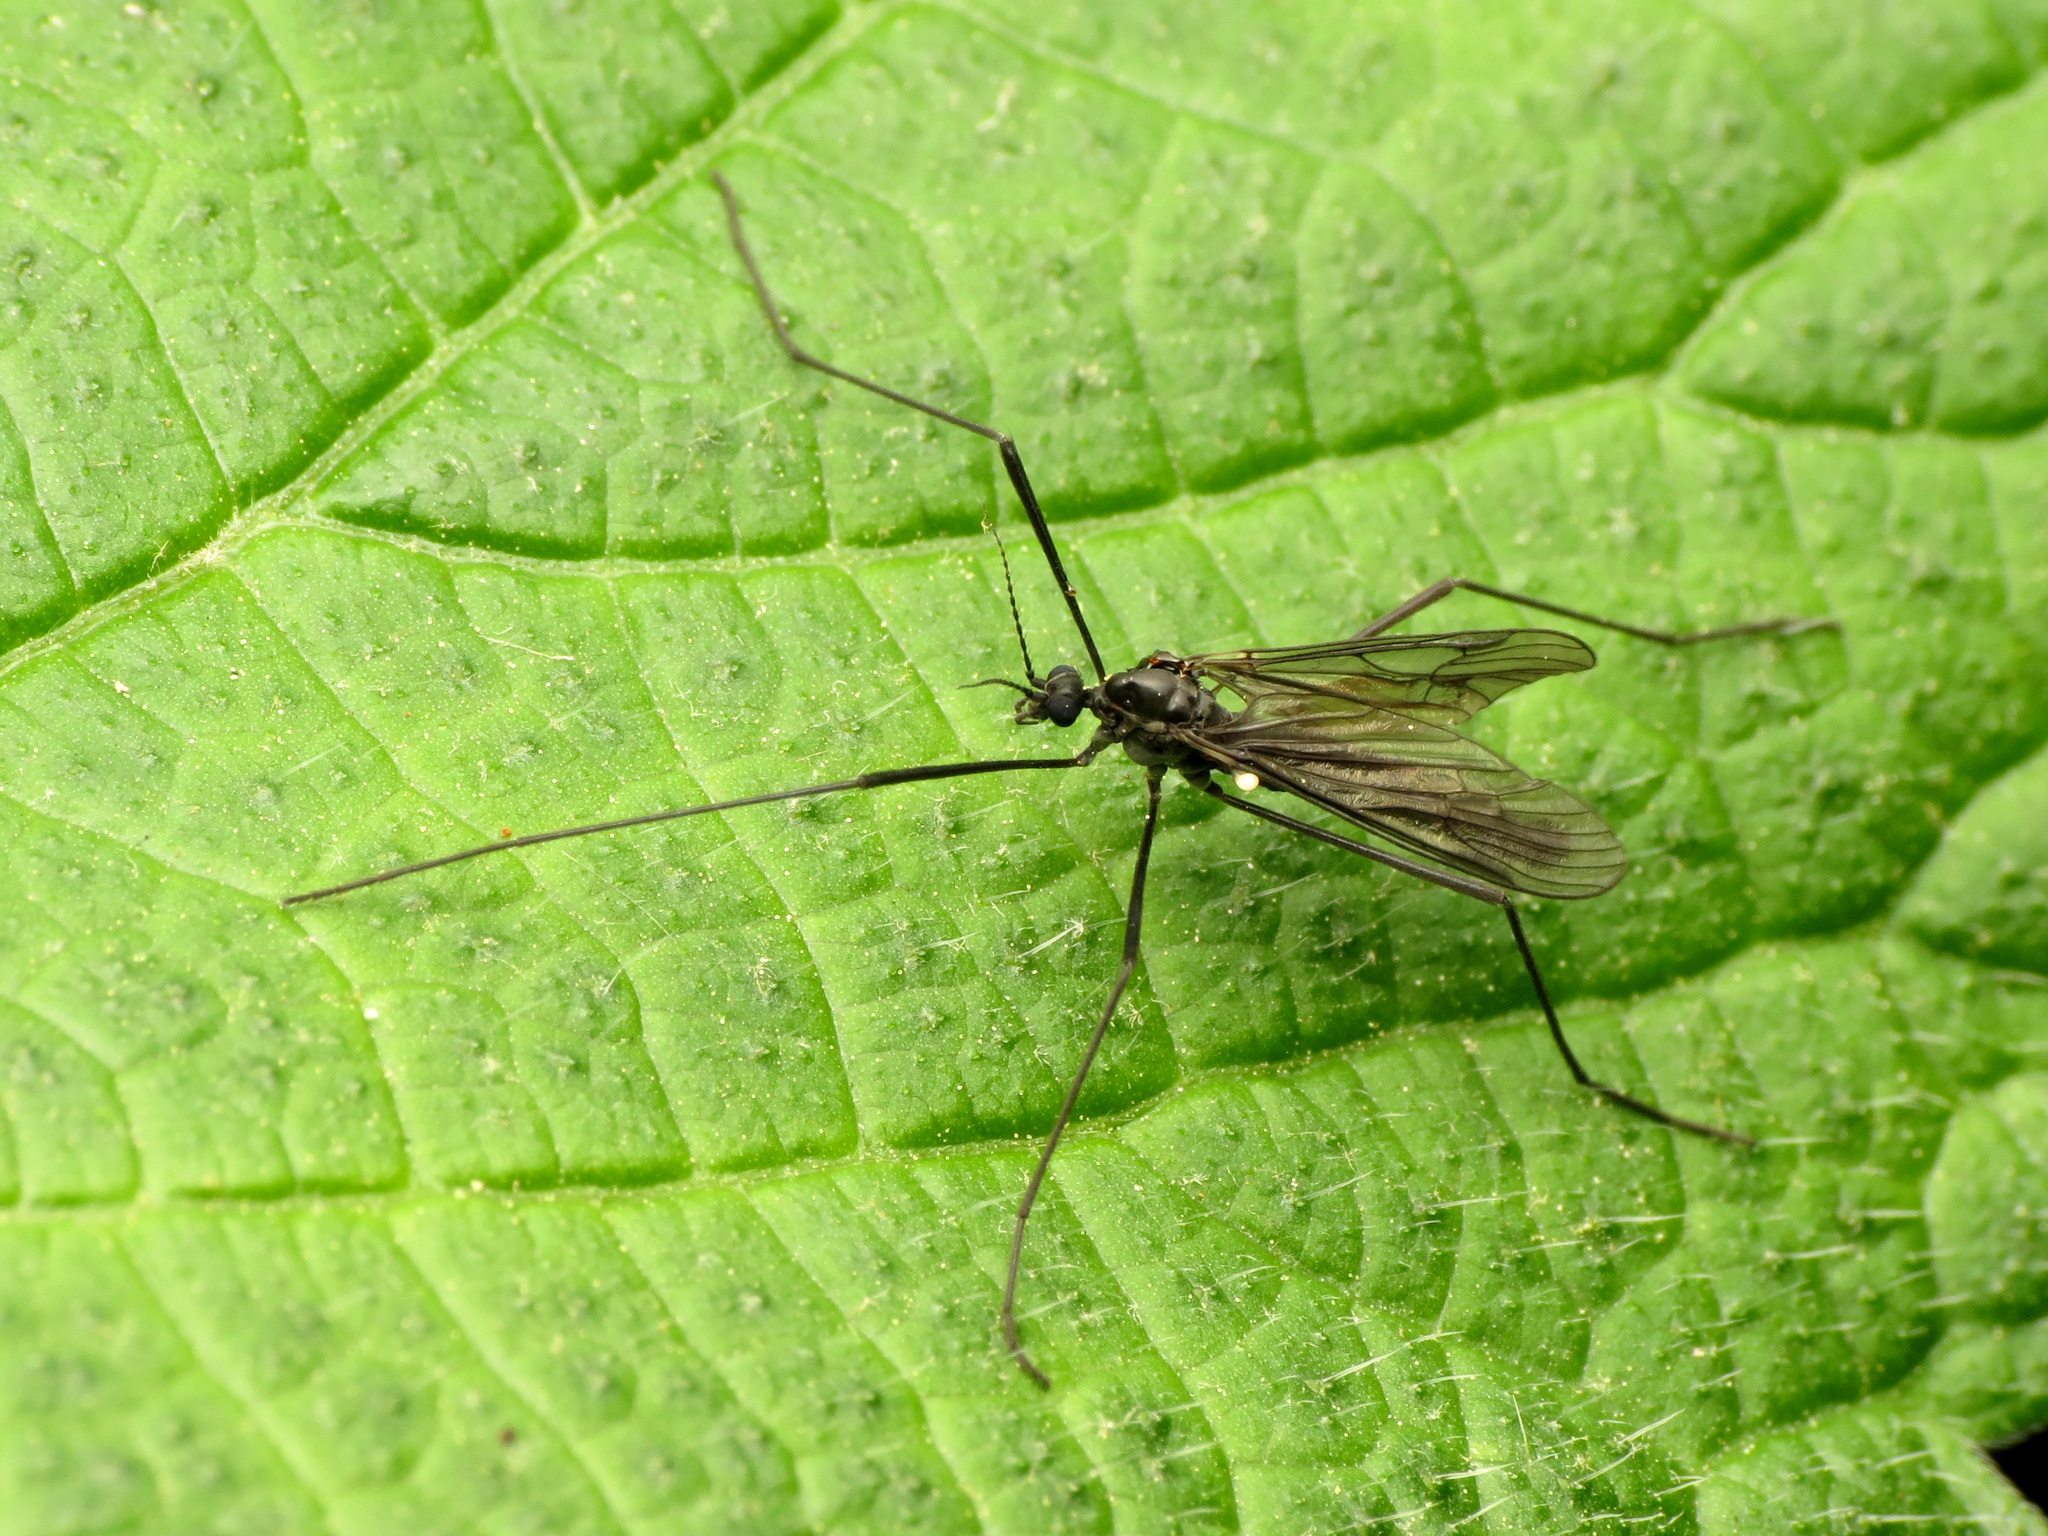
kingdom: Animalia
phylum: Arthropoda
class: Insecta
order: Diptera
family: Limoniidae
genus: Gnophomyia
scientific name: Gnophomyia tristissima
